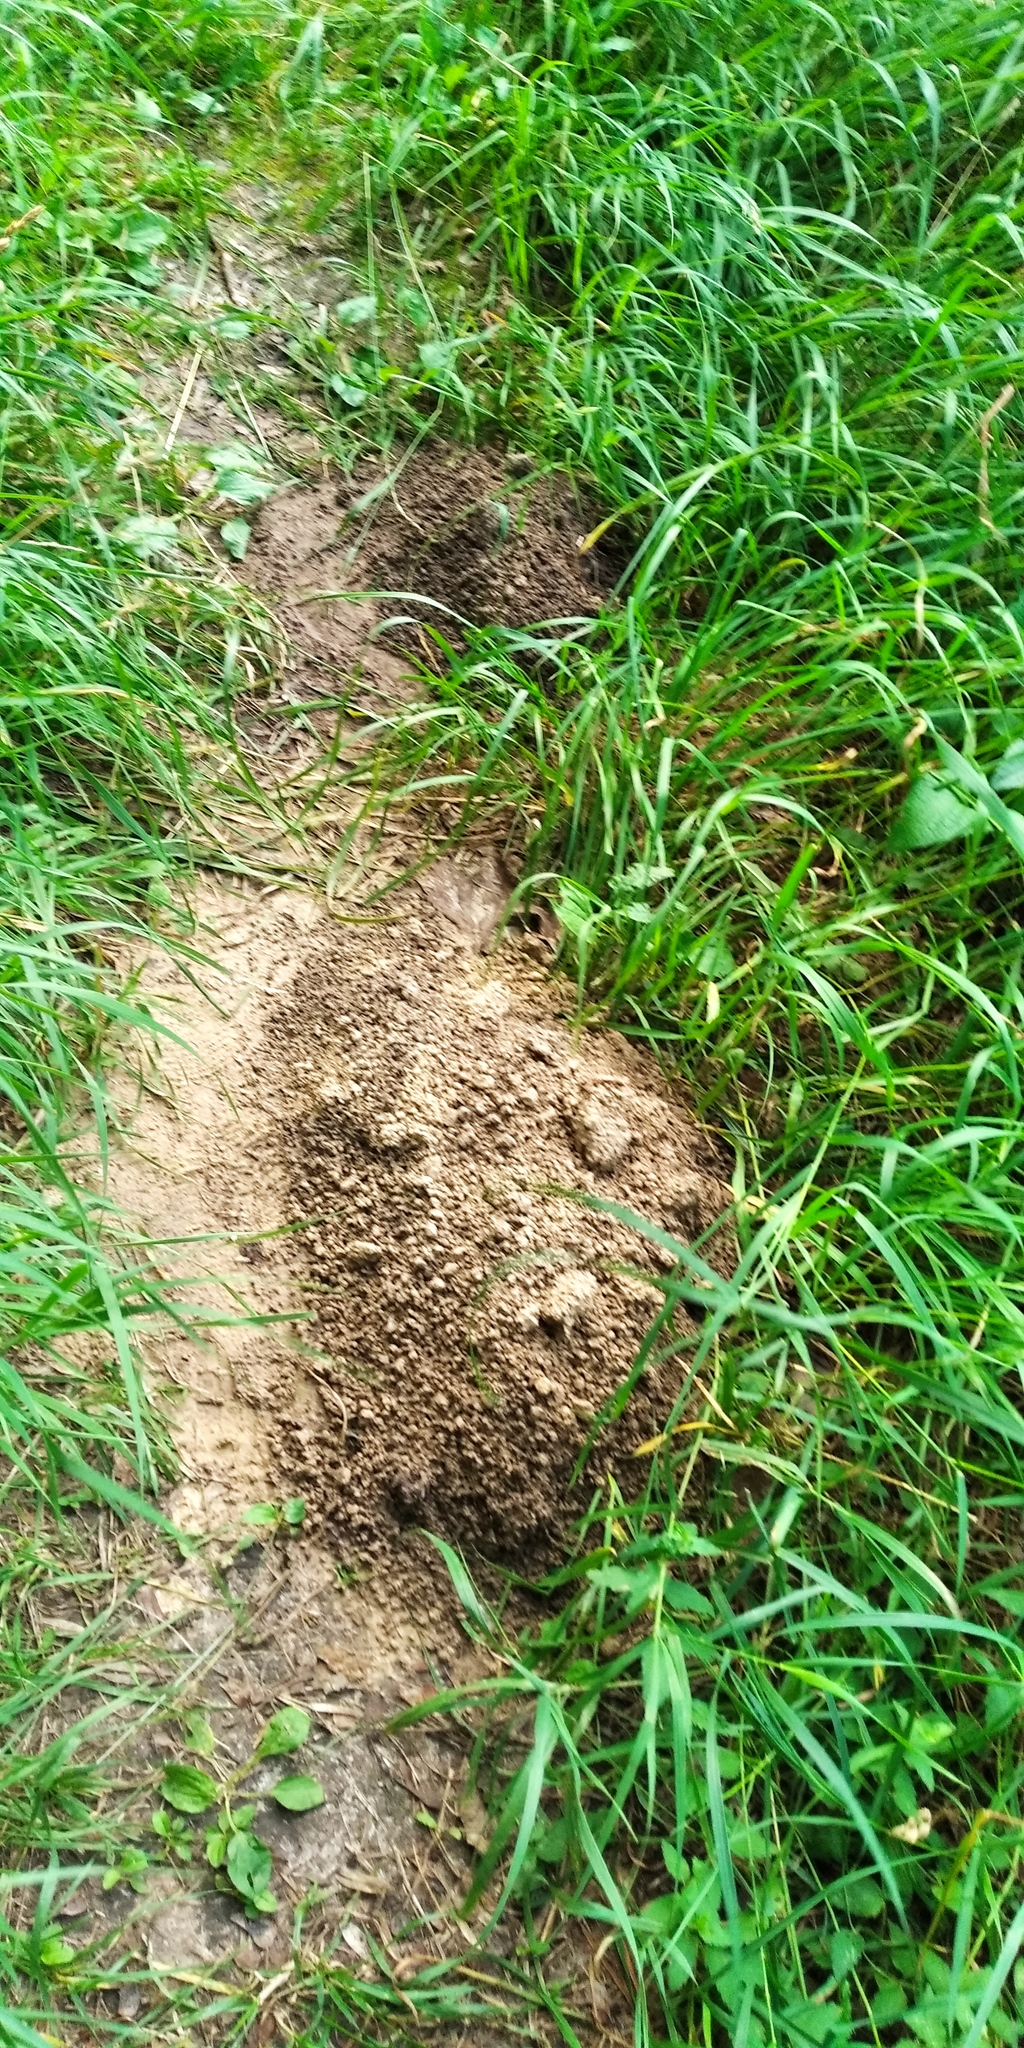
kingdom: Animalia
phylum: Chordata
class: Mammalia
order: Soricomorpha
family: Talpidae
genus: Talpa
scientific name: Talpa europaea
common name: European mole
